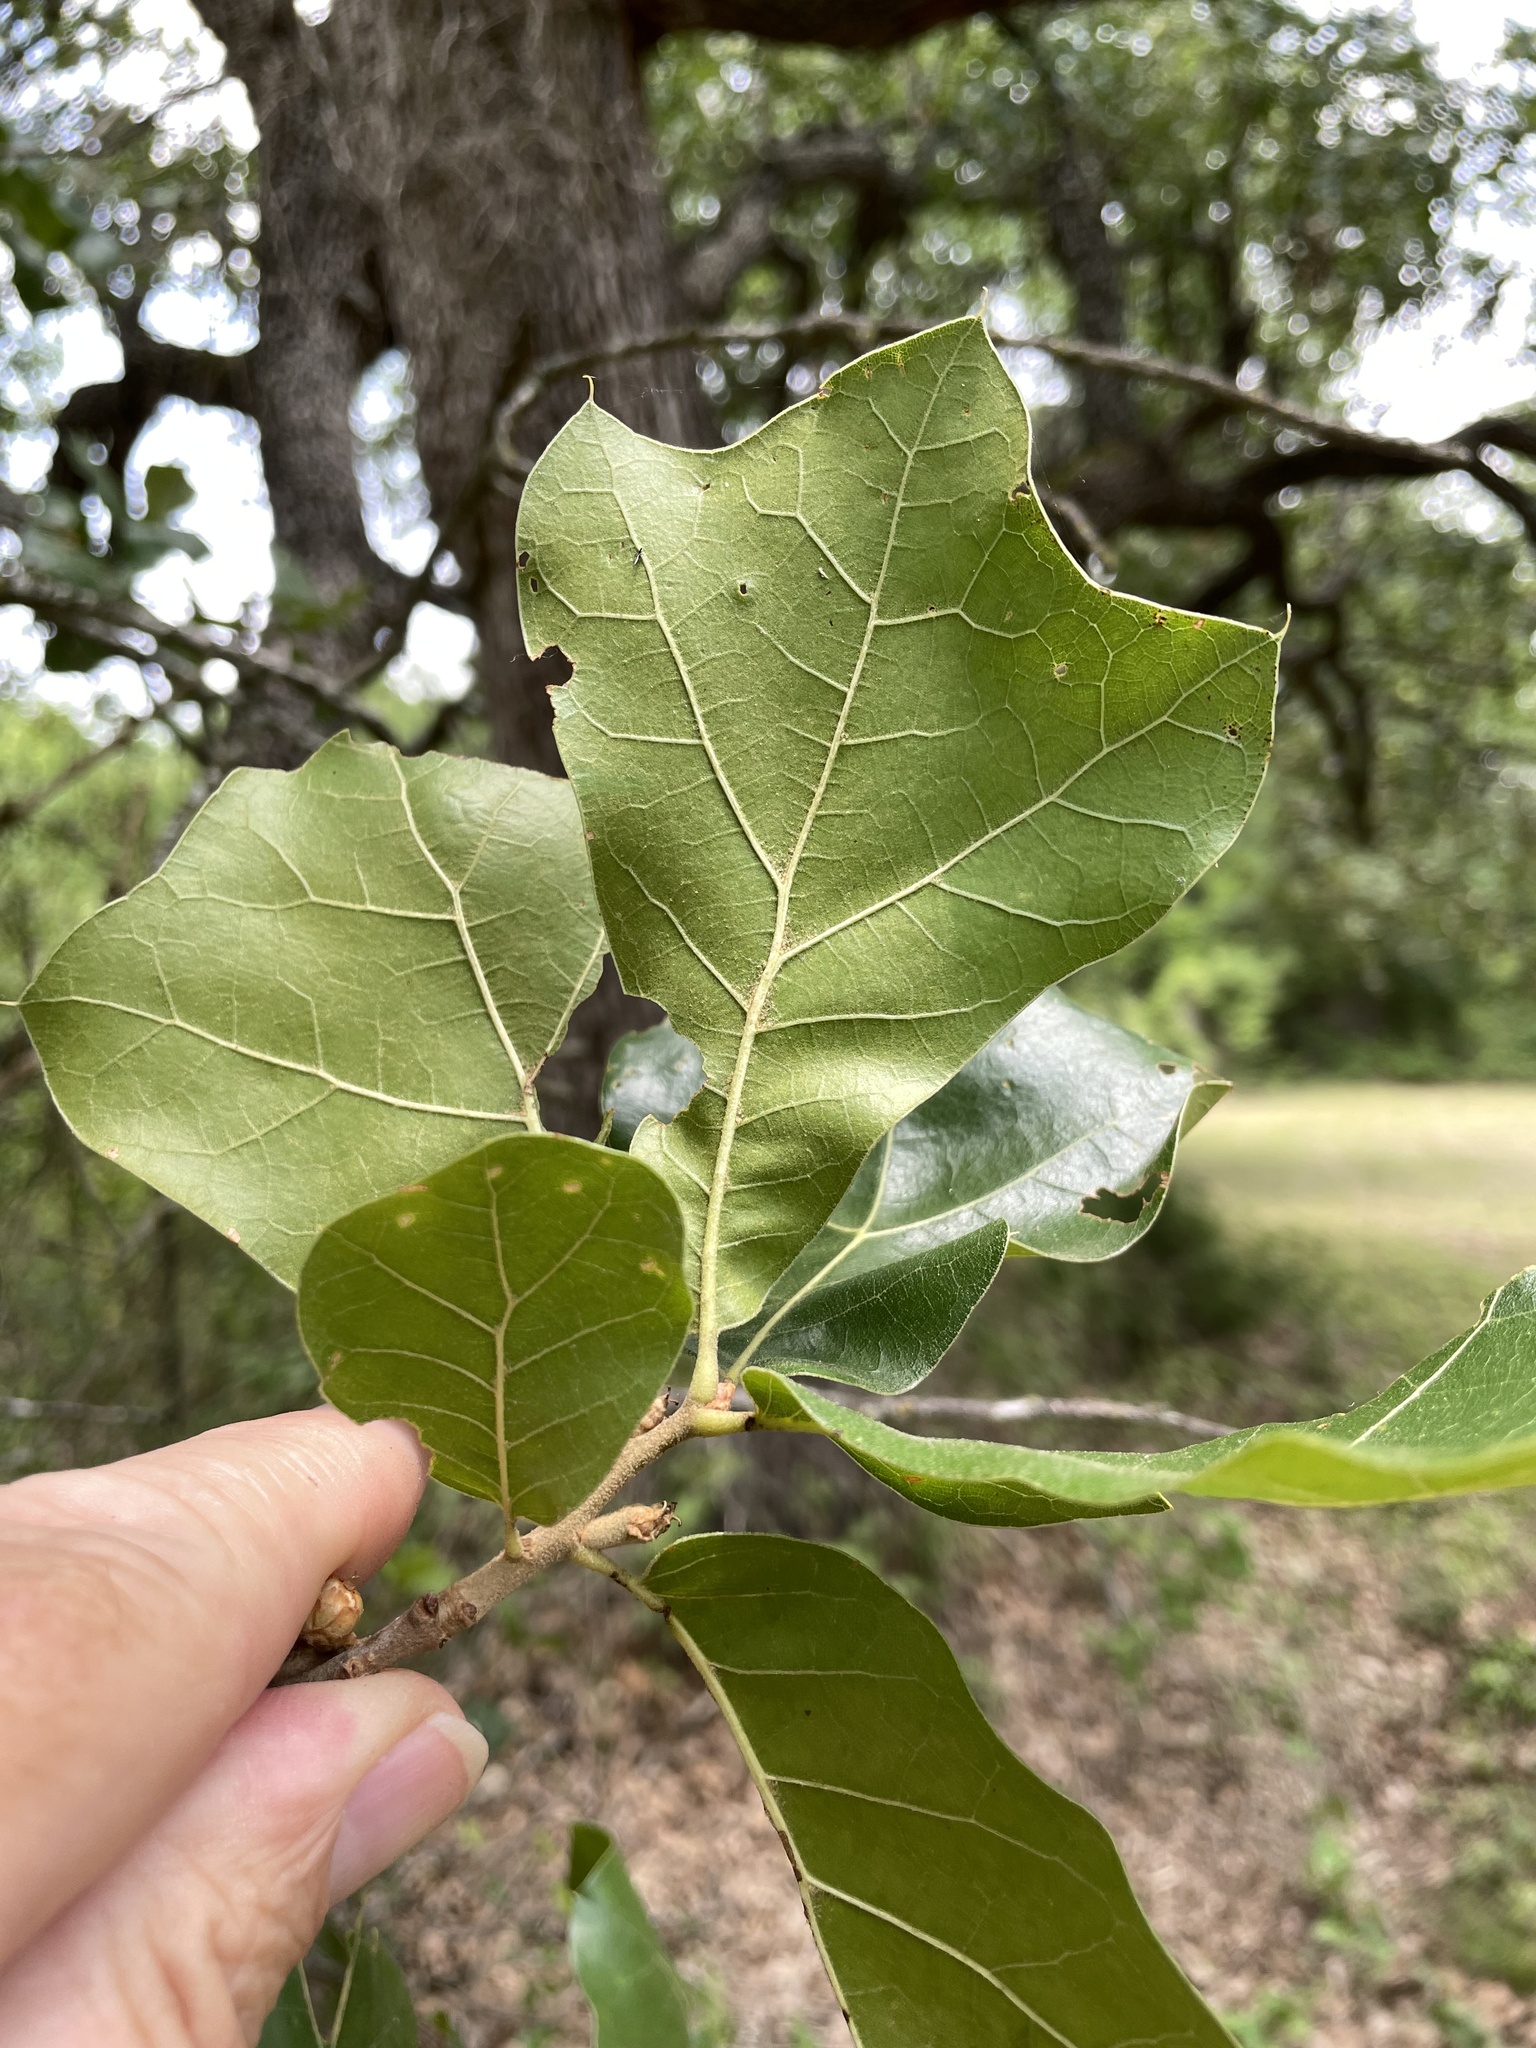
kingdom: Plantae
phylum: Tracheophyta
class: Magnoliopsida
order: Fagales
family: Fagaceae
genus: Quercus
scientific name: Quercus marilandica
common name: Blackjack oak
